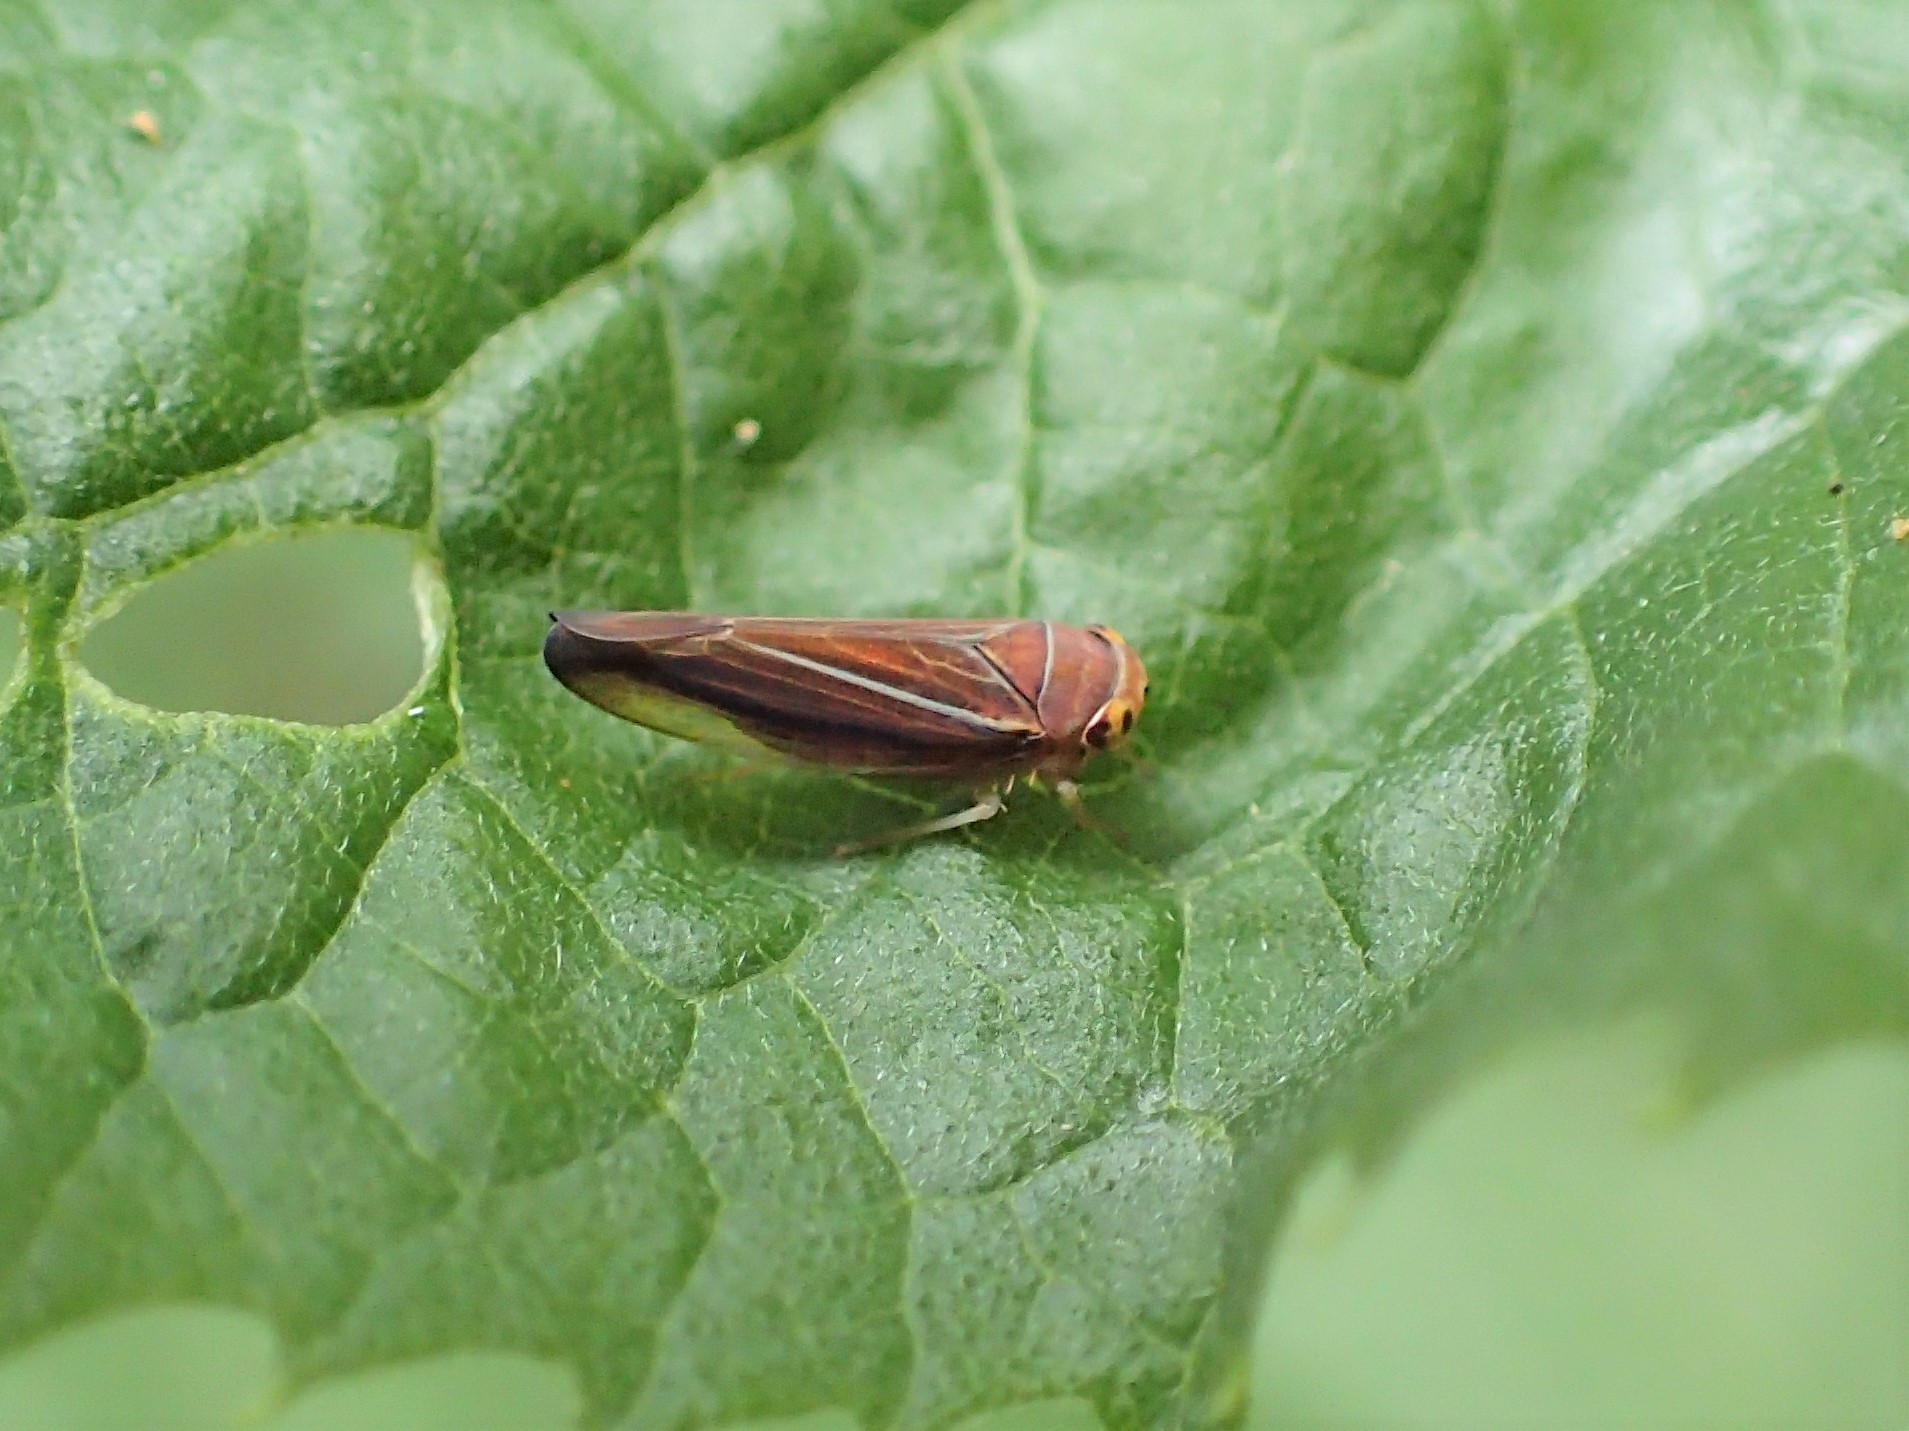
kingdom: Animalia
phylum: Arthropoda
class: Insecta
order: Hemiptera
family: Cicadellidae
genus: Idiodonus
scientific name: Idiodonus kennicotti
